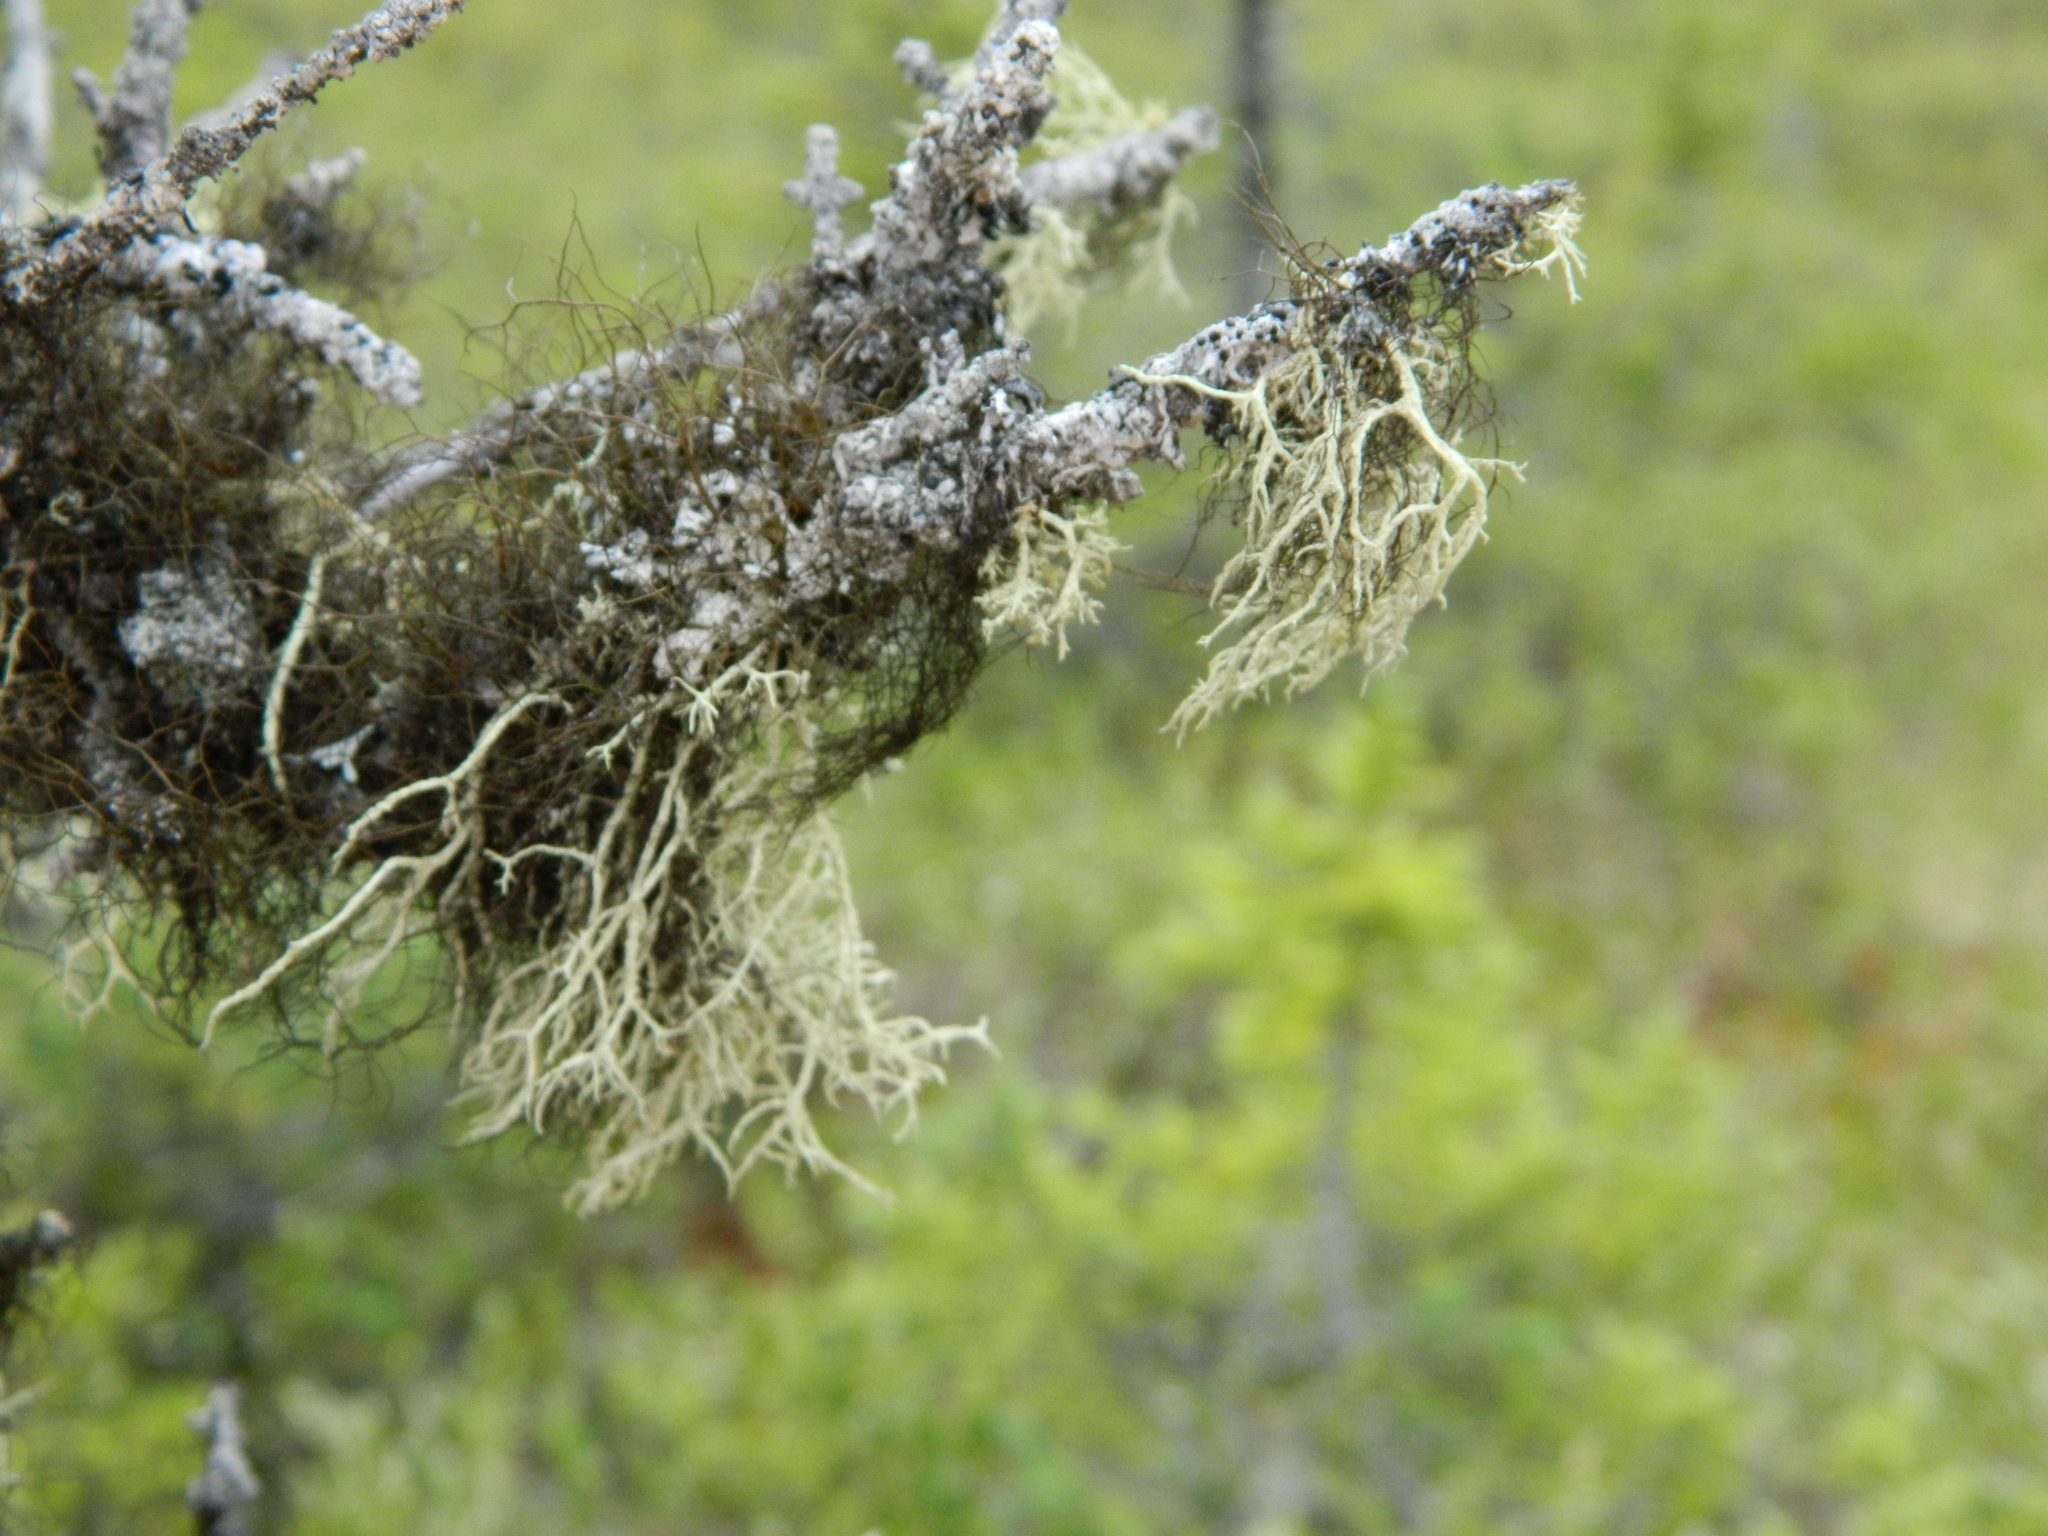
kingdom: Fungi
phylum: Ascomycota
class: Lecanoromycetes
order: Lecanorales
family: Parmeliaceae
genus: Evernia
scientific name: Evernia mesomorpha
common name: Boreal oak moss lichen
